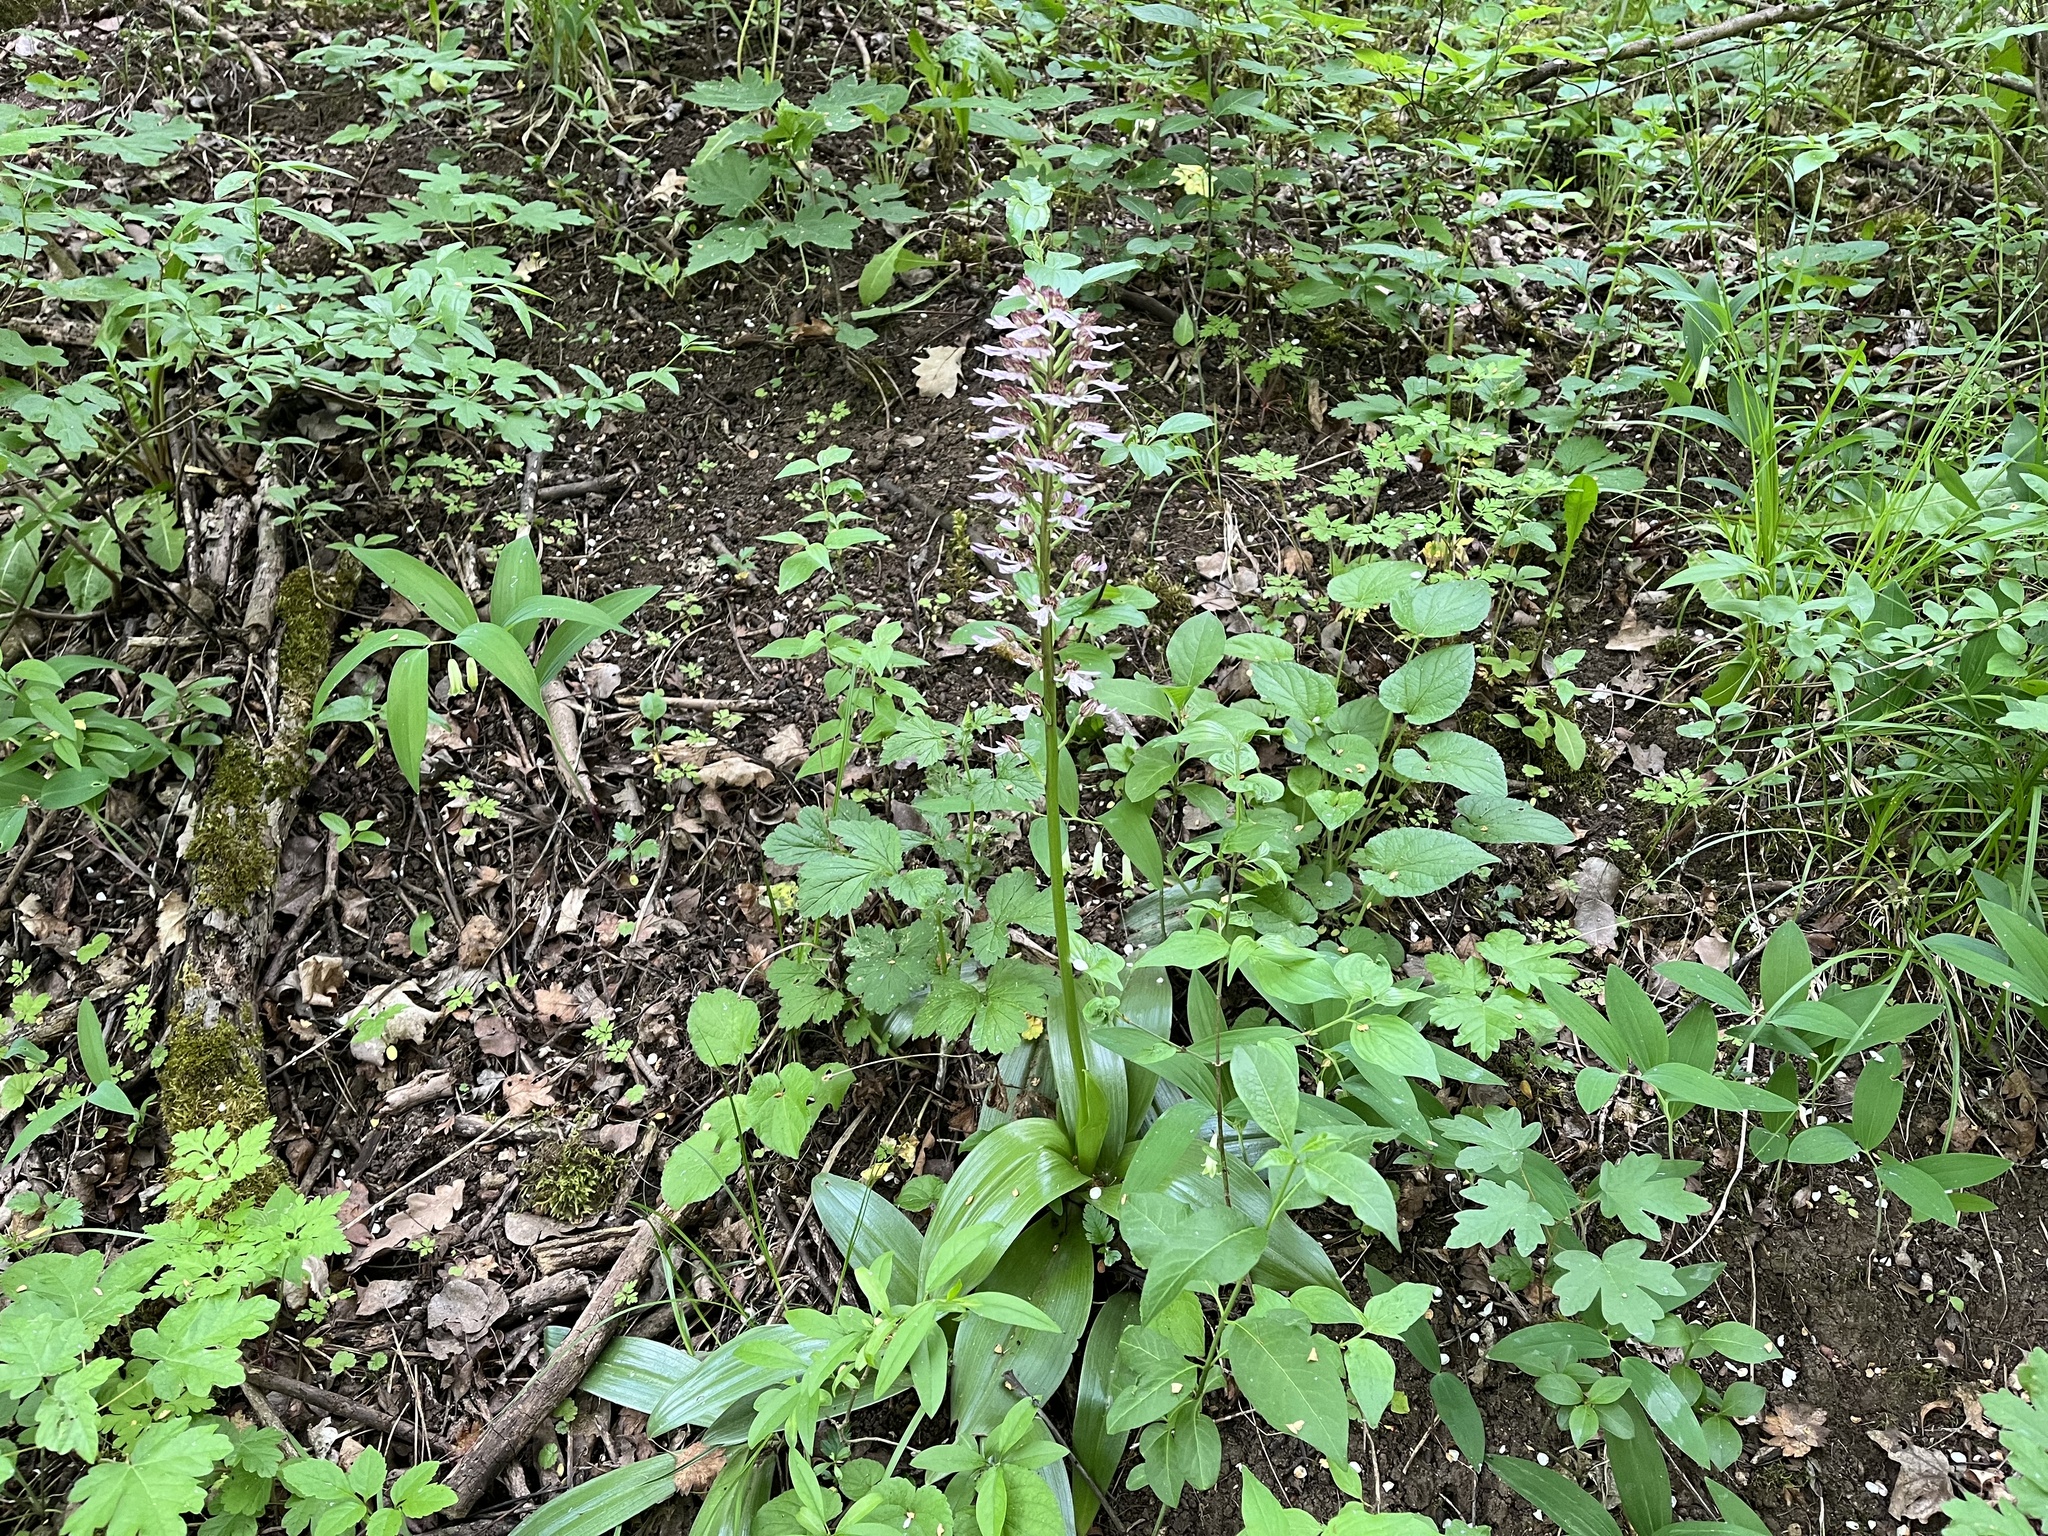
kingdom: Plantae
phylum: Tracheophyta
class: Liliopsida
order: Asparagales
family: Orchidaceae
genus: Orchis
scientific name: Orchis purpurea
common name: Lady orchid
